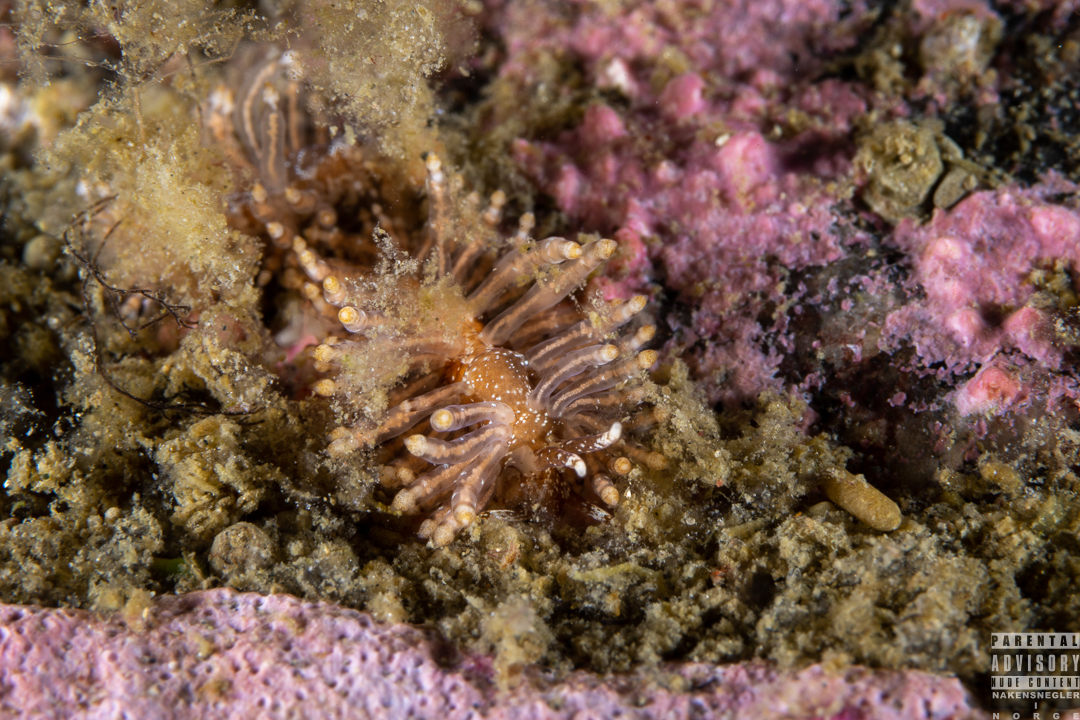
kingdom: Animalia
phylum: Mollusca
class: Gastropoda
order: Nudibranchia
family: Eubranchidae
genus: Eubranchus
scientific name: Eubranchus vittatus
